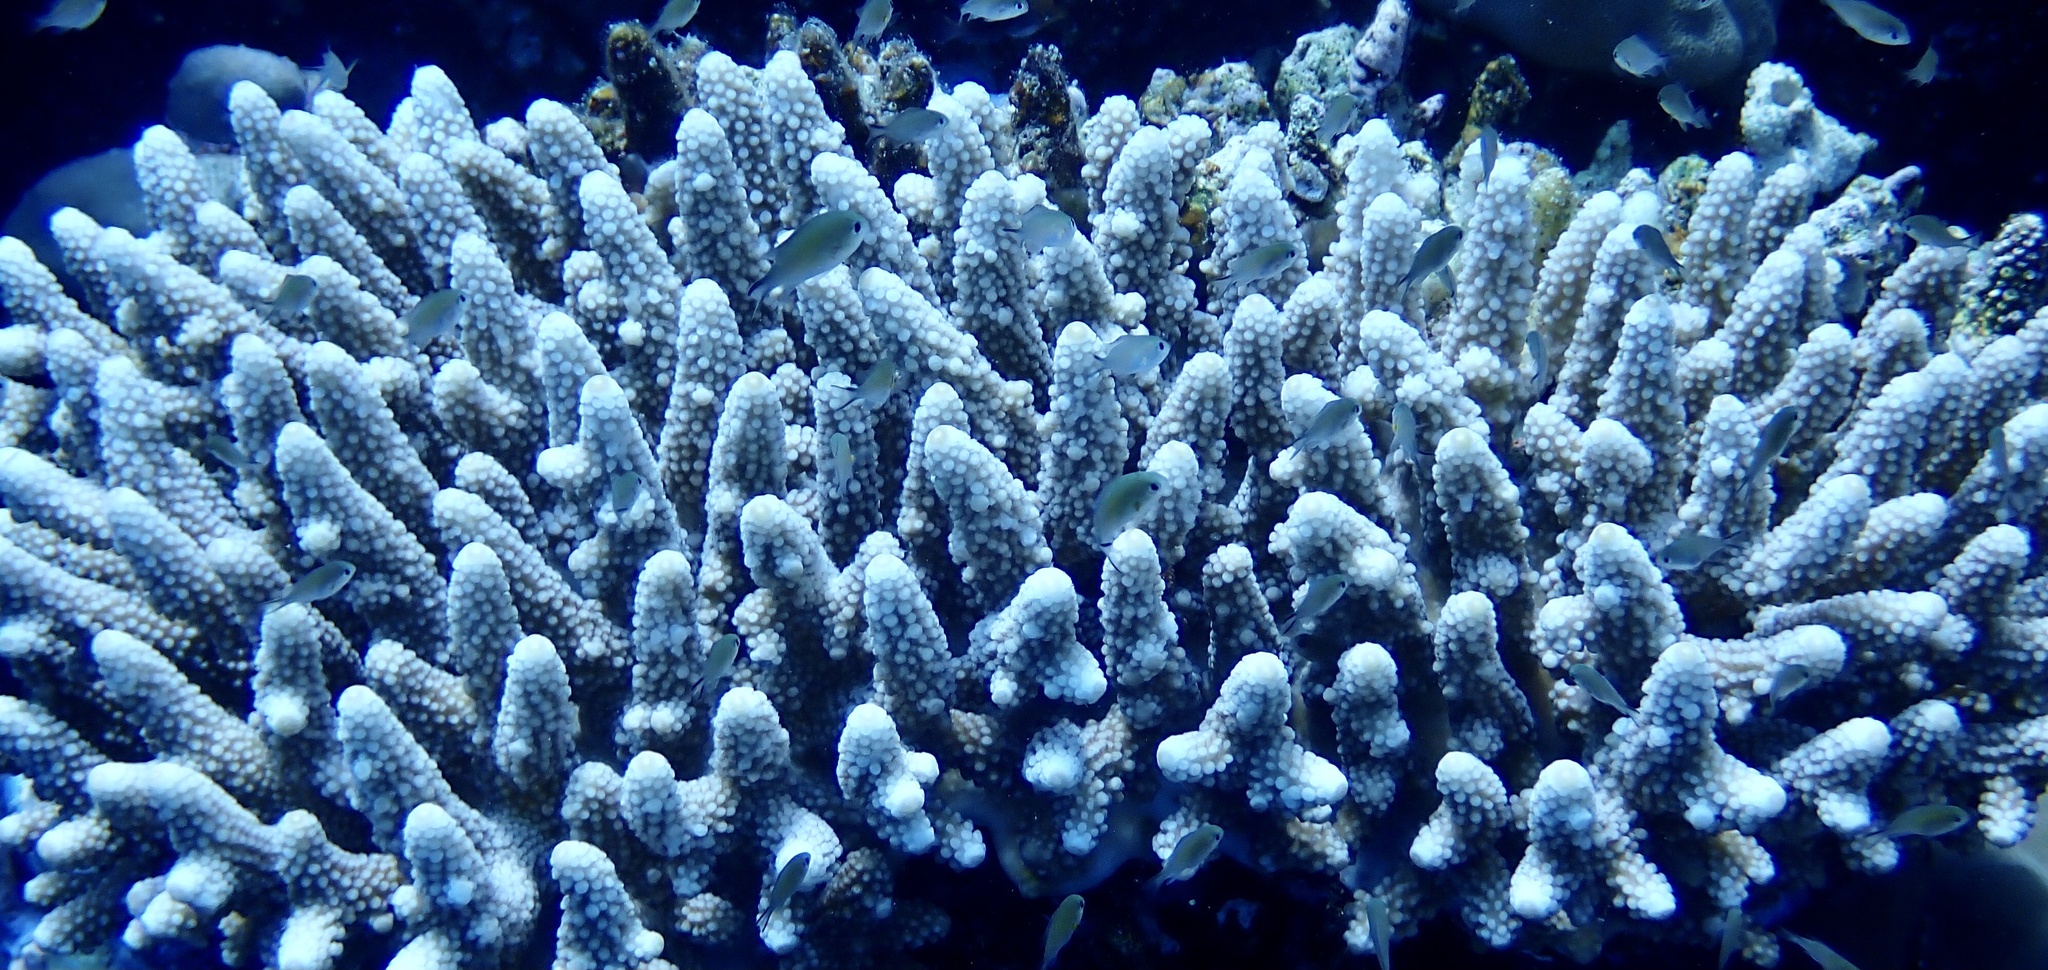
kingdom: Animalia
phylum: Cnidaria
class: Anthozoa
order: Scleractinia
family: Acroporidae
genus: Acropora
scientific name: Acropora gemmifera
